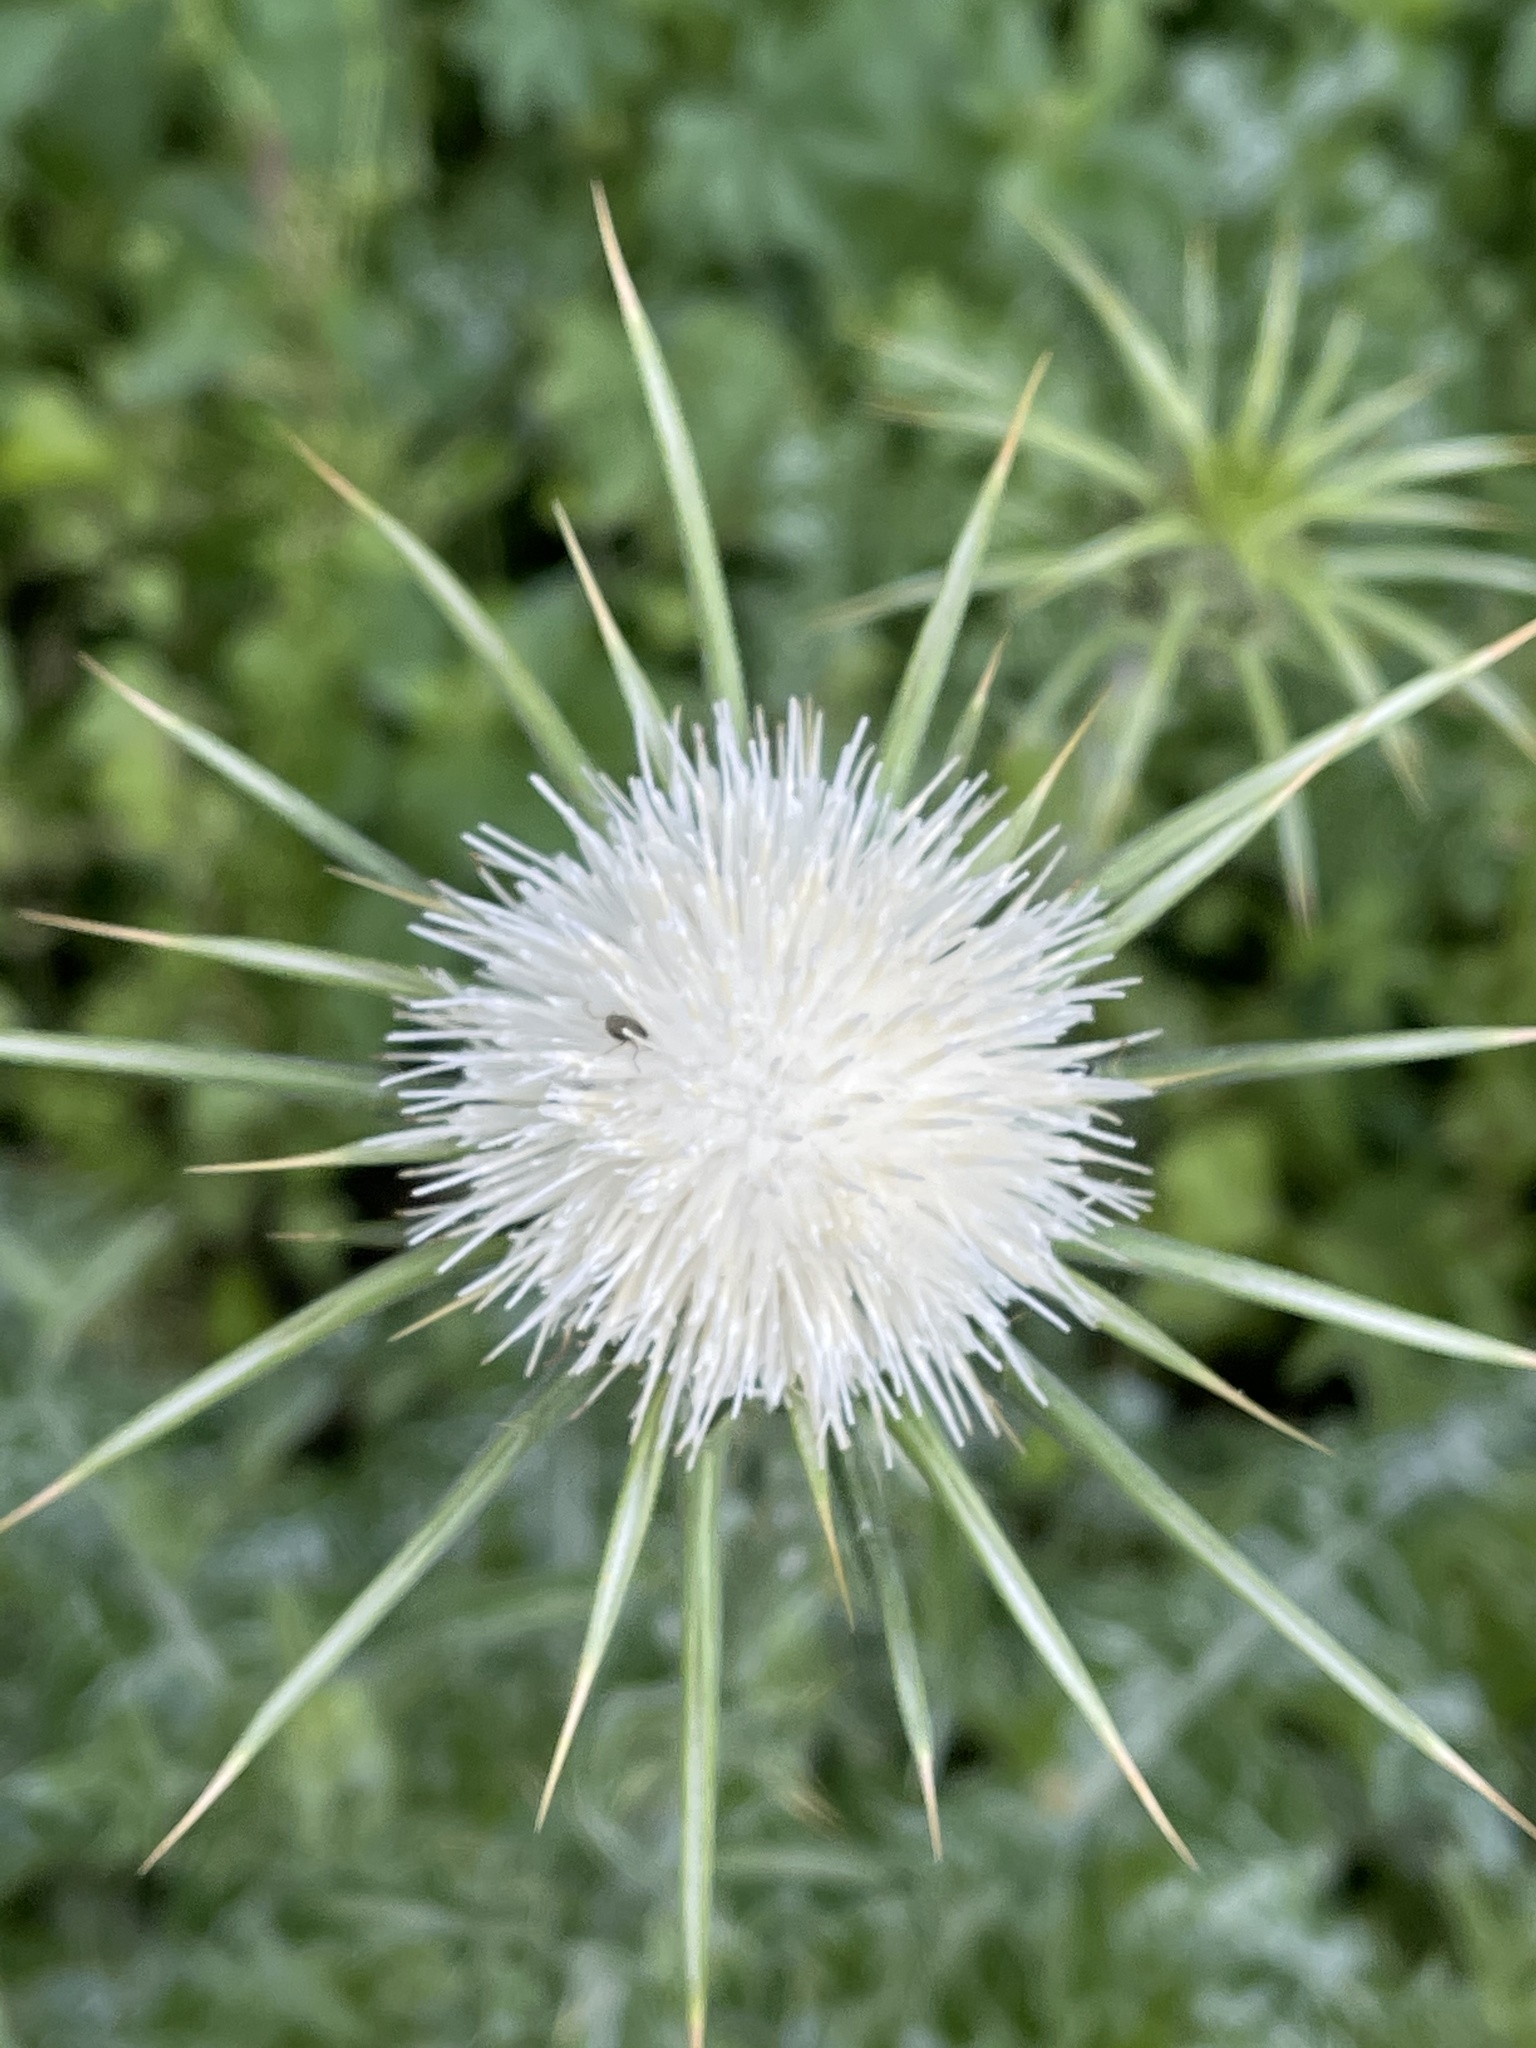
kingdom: Plantae
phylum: Tracheophyta
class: Magnoliopsida
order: Asterales
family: Asteraceae
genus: Silybum
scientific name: Silybum marianum
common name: Milk thistle
